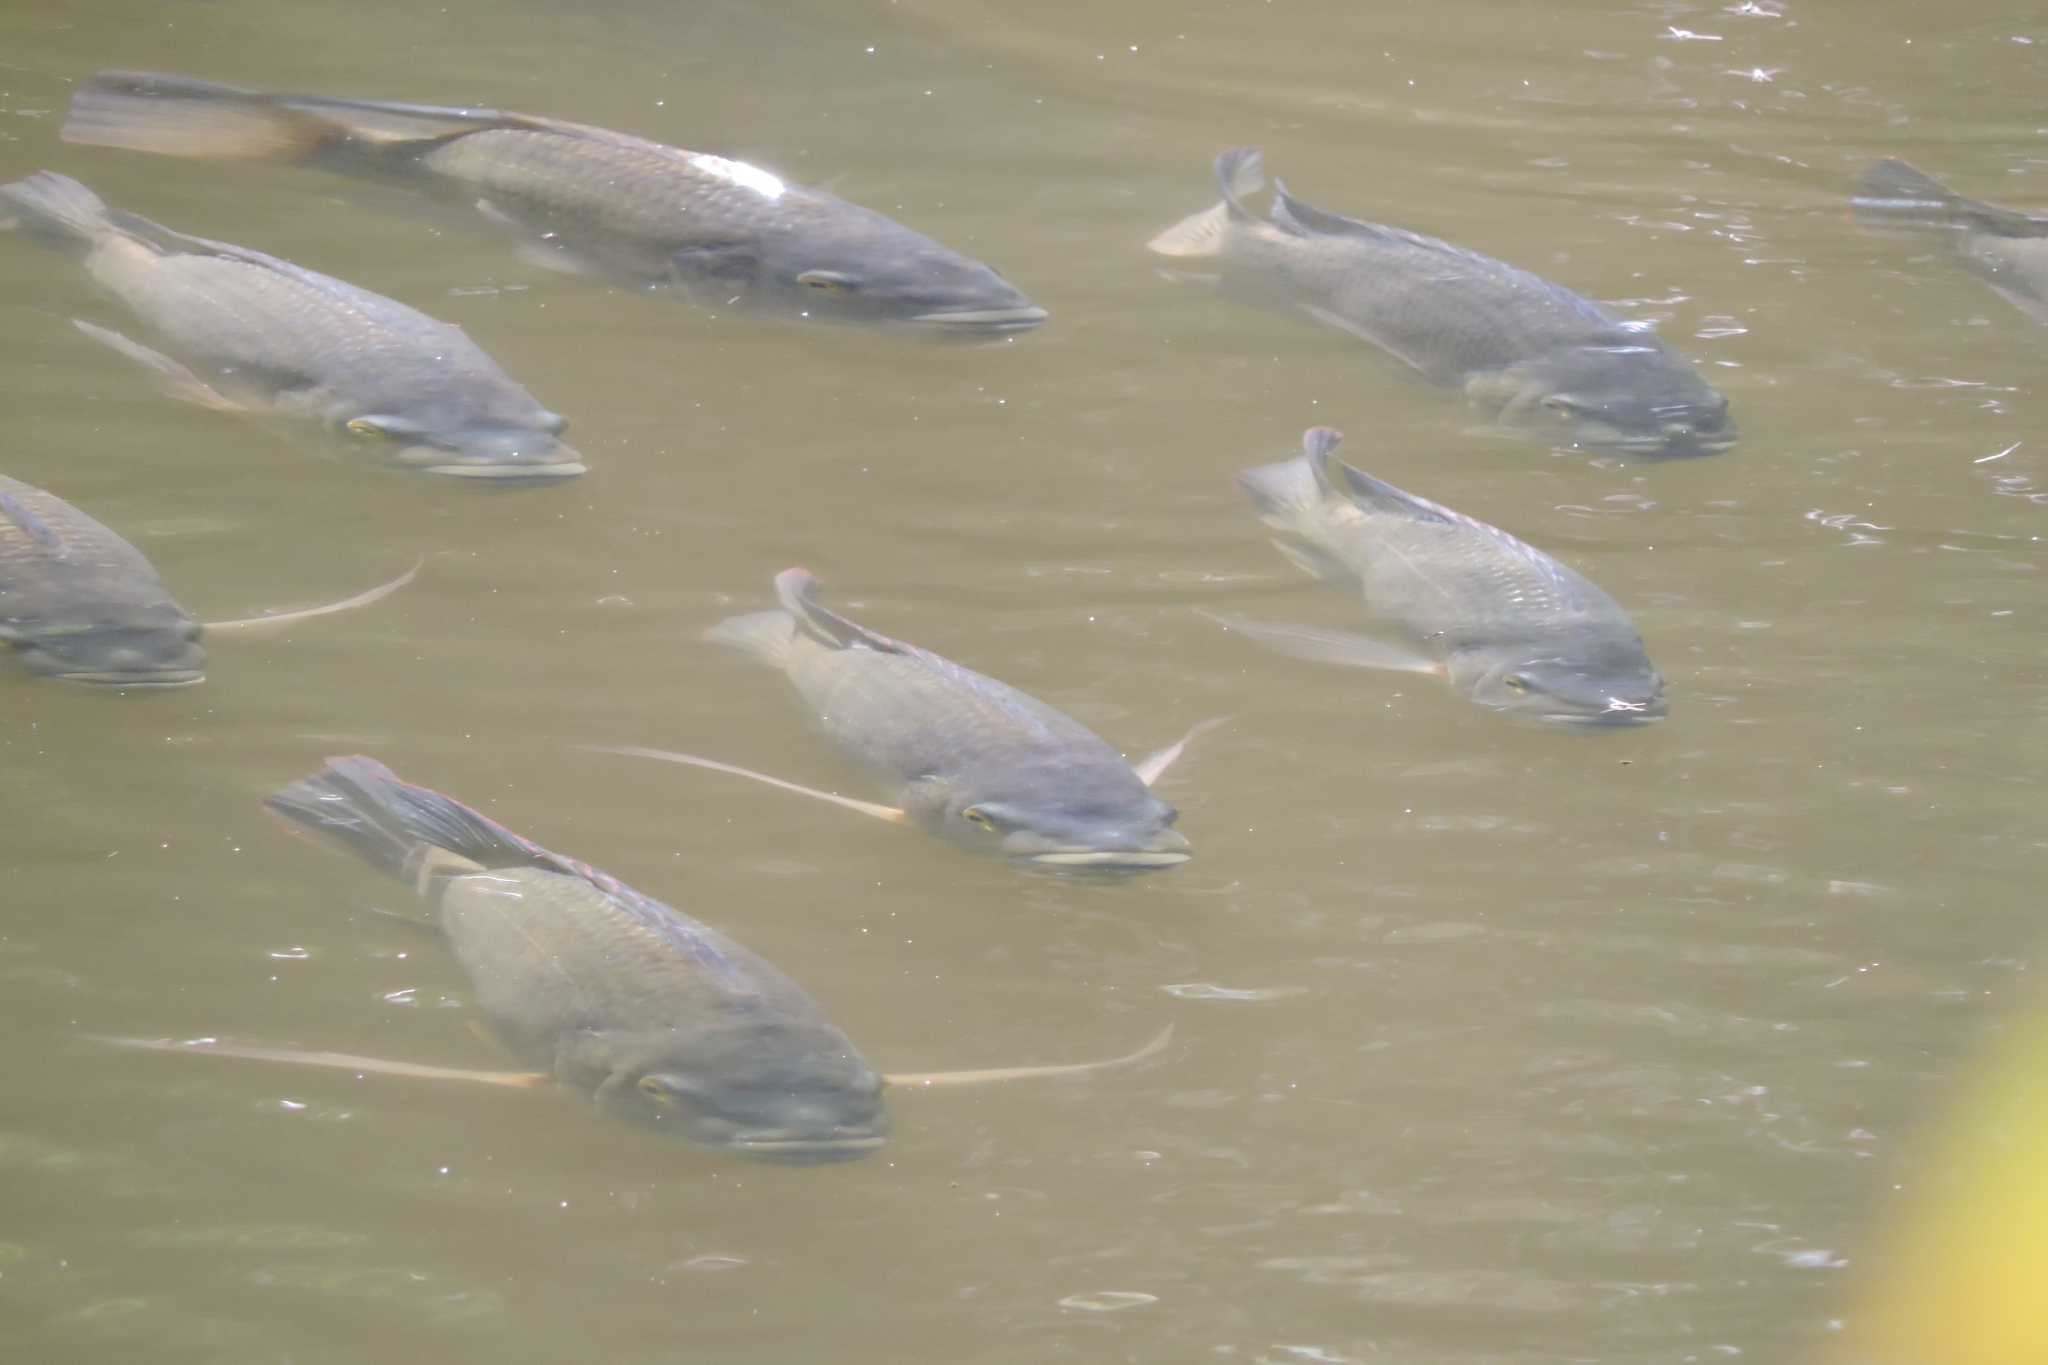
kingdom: Animalia
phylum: Chordata
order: Perciformes
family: Cichlidae
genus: Oreochromis
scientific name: Oreochromis mossambicus
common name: Mozambique tilapia
